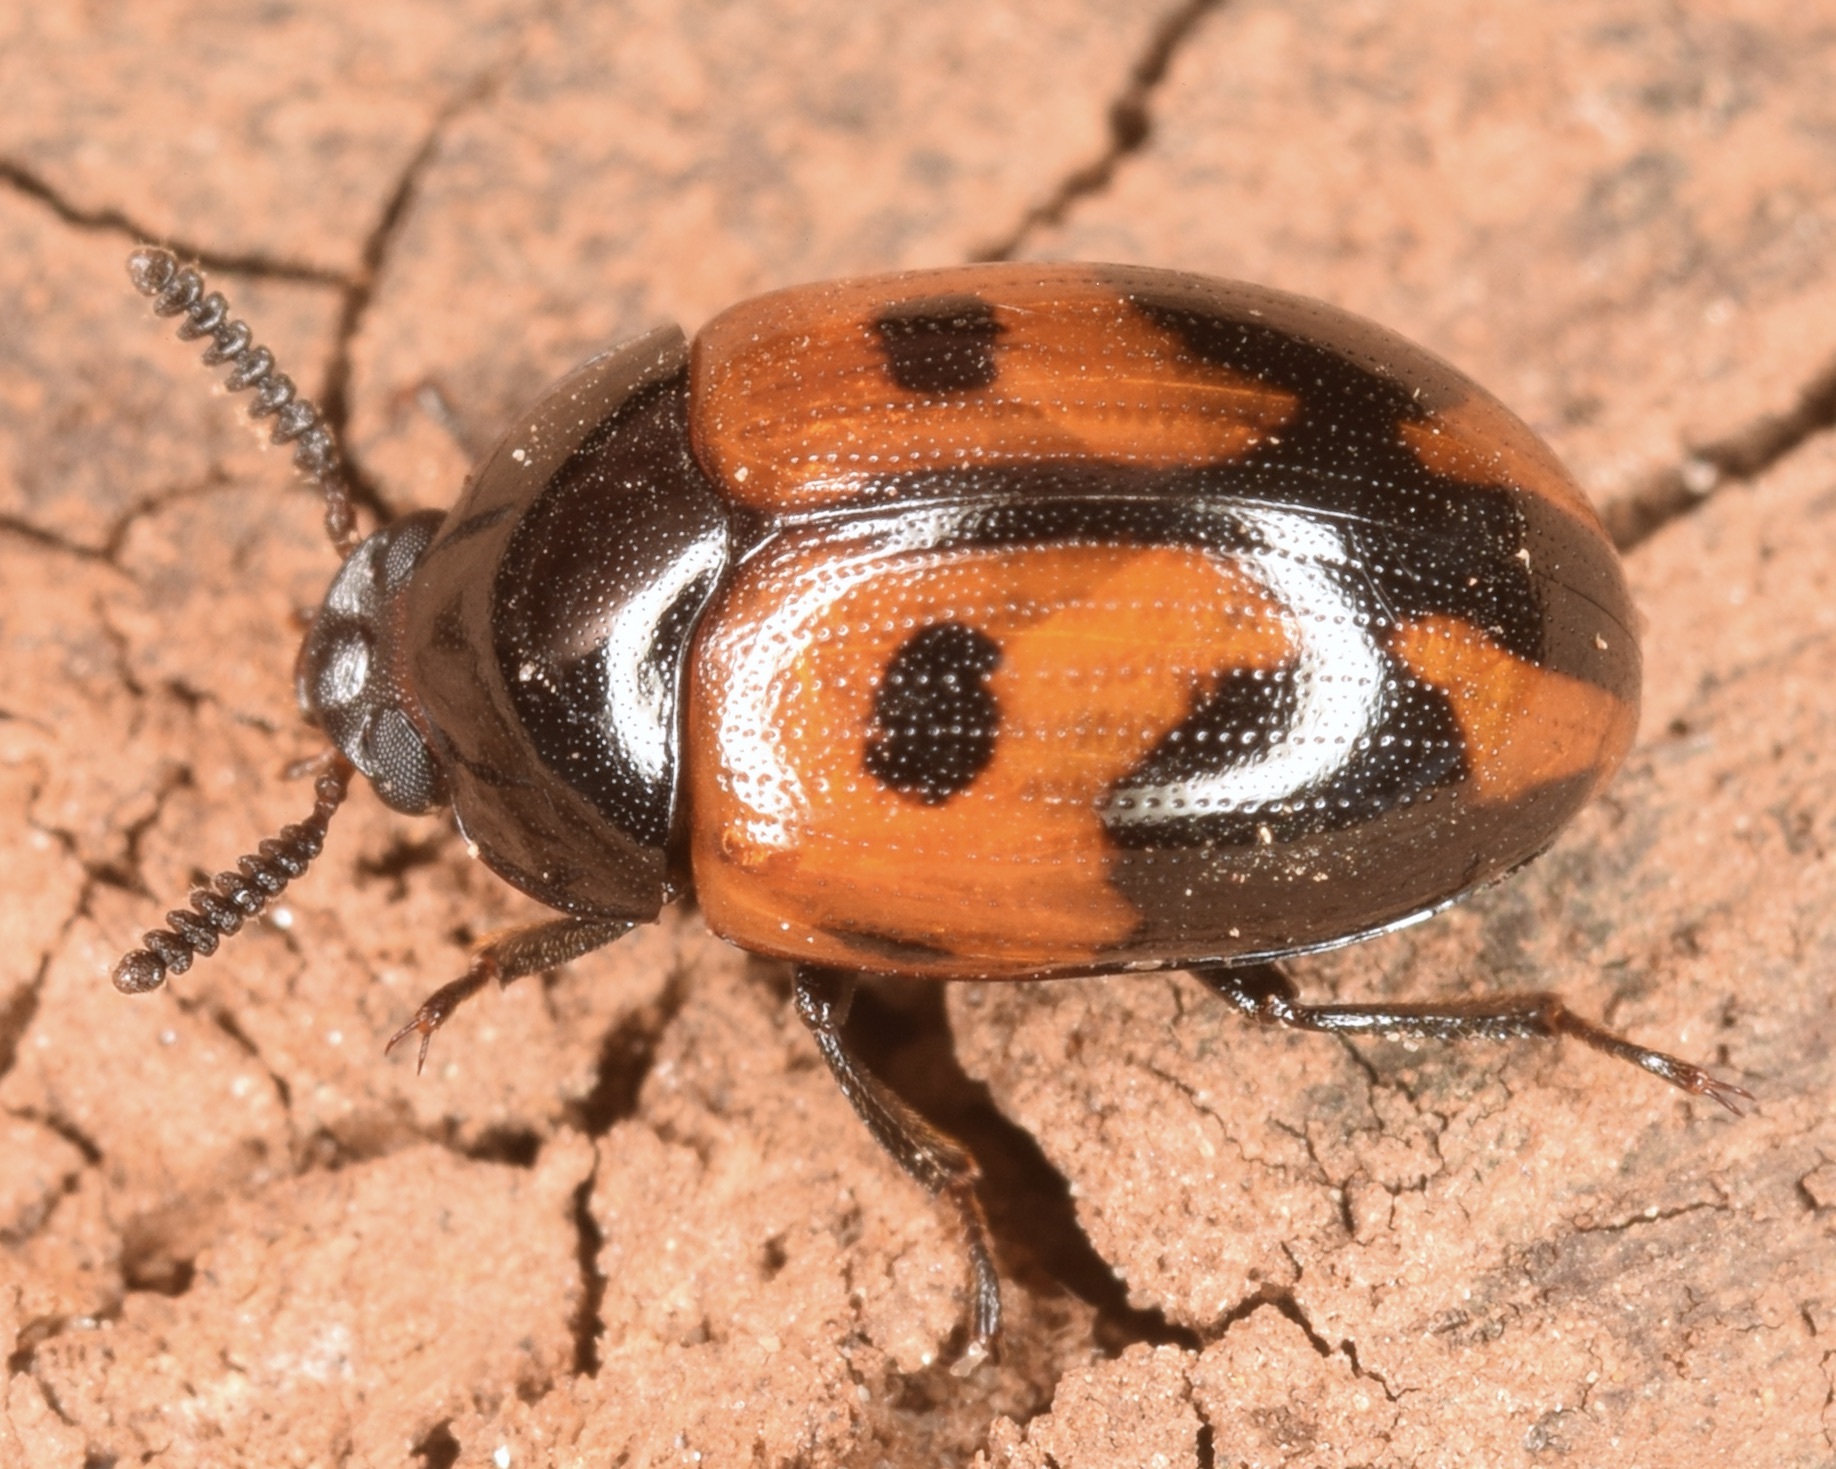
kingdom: Animalia
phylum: Arthropoda
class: Insecta
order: Coleoptera
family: Tenebrionidae
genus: Diaperis
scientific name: Diaperis maculata
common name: Darkling beetle
